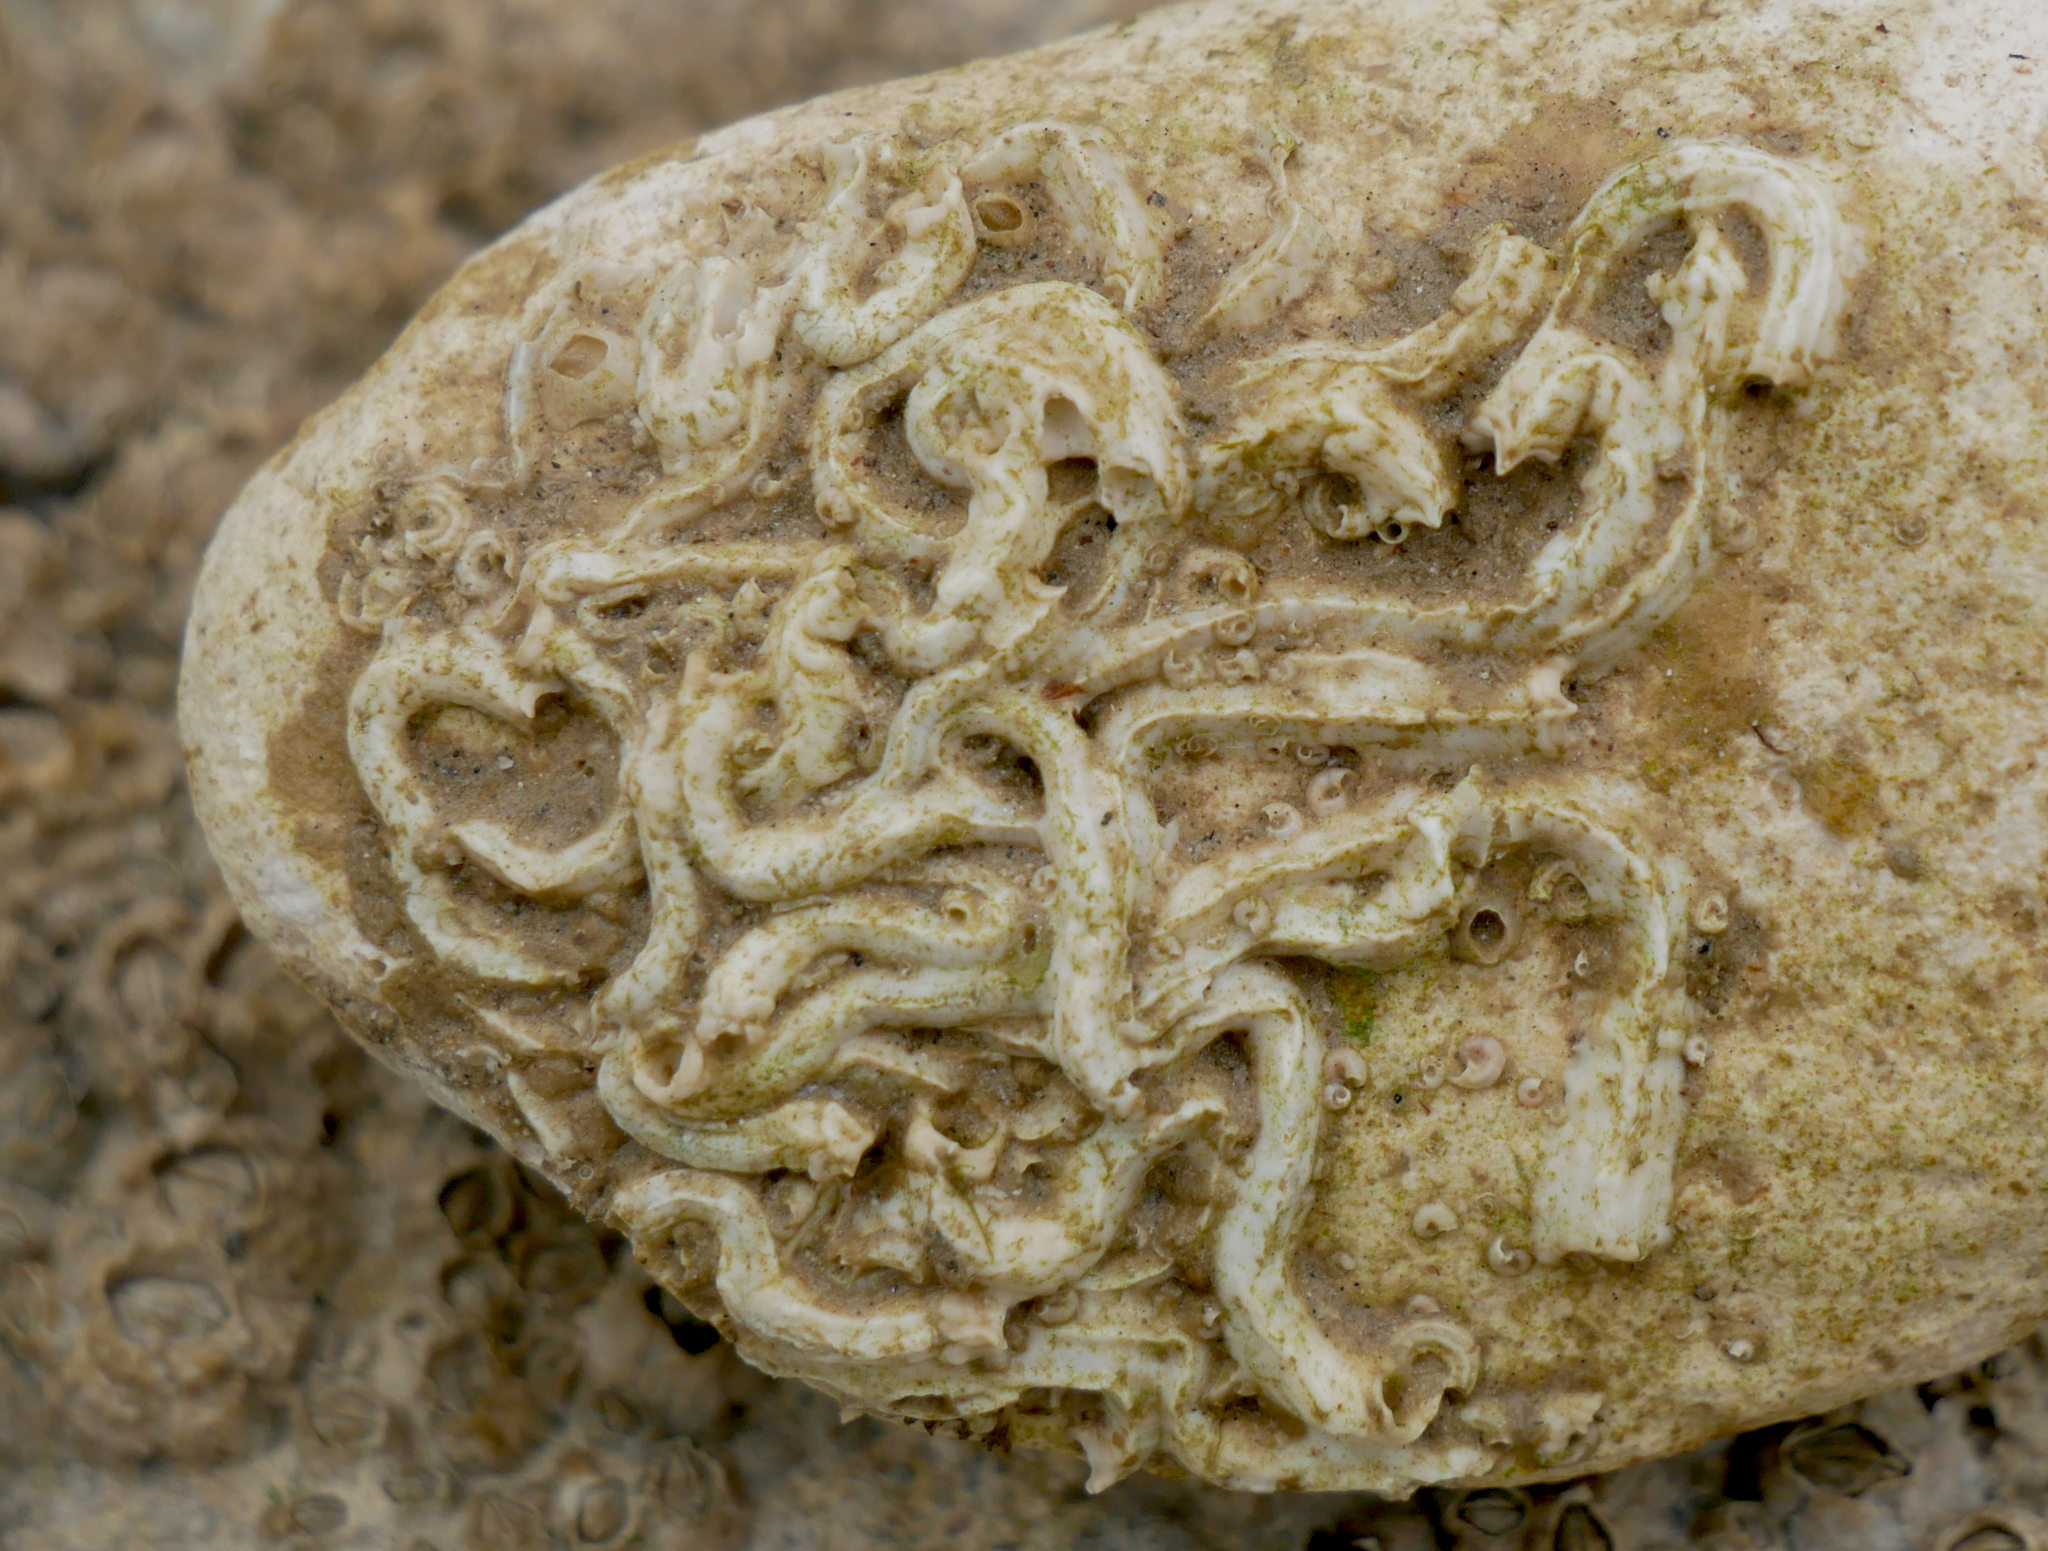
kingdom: Animalia
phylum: Annelida
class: Polychaeta
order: Sabellida
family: Serpulidae
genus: Spirobranchus
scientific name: Spirobranchus lamarcki
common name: Keelworm
